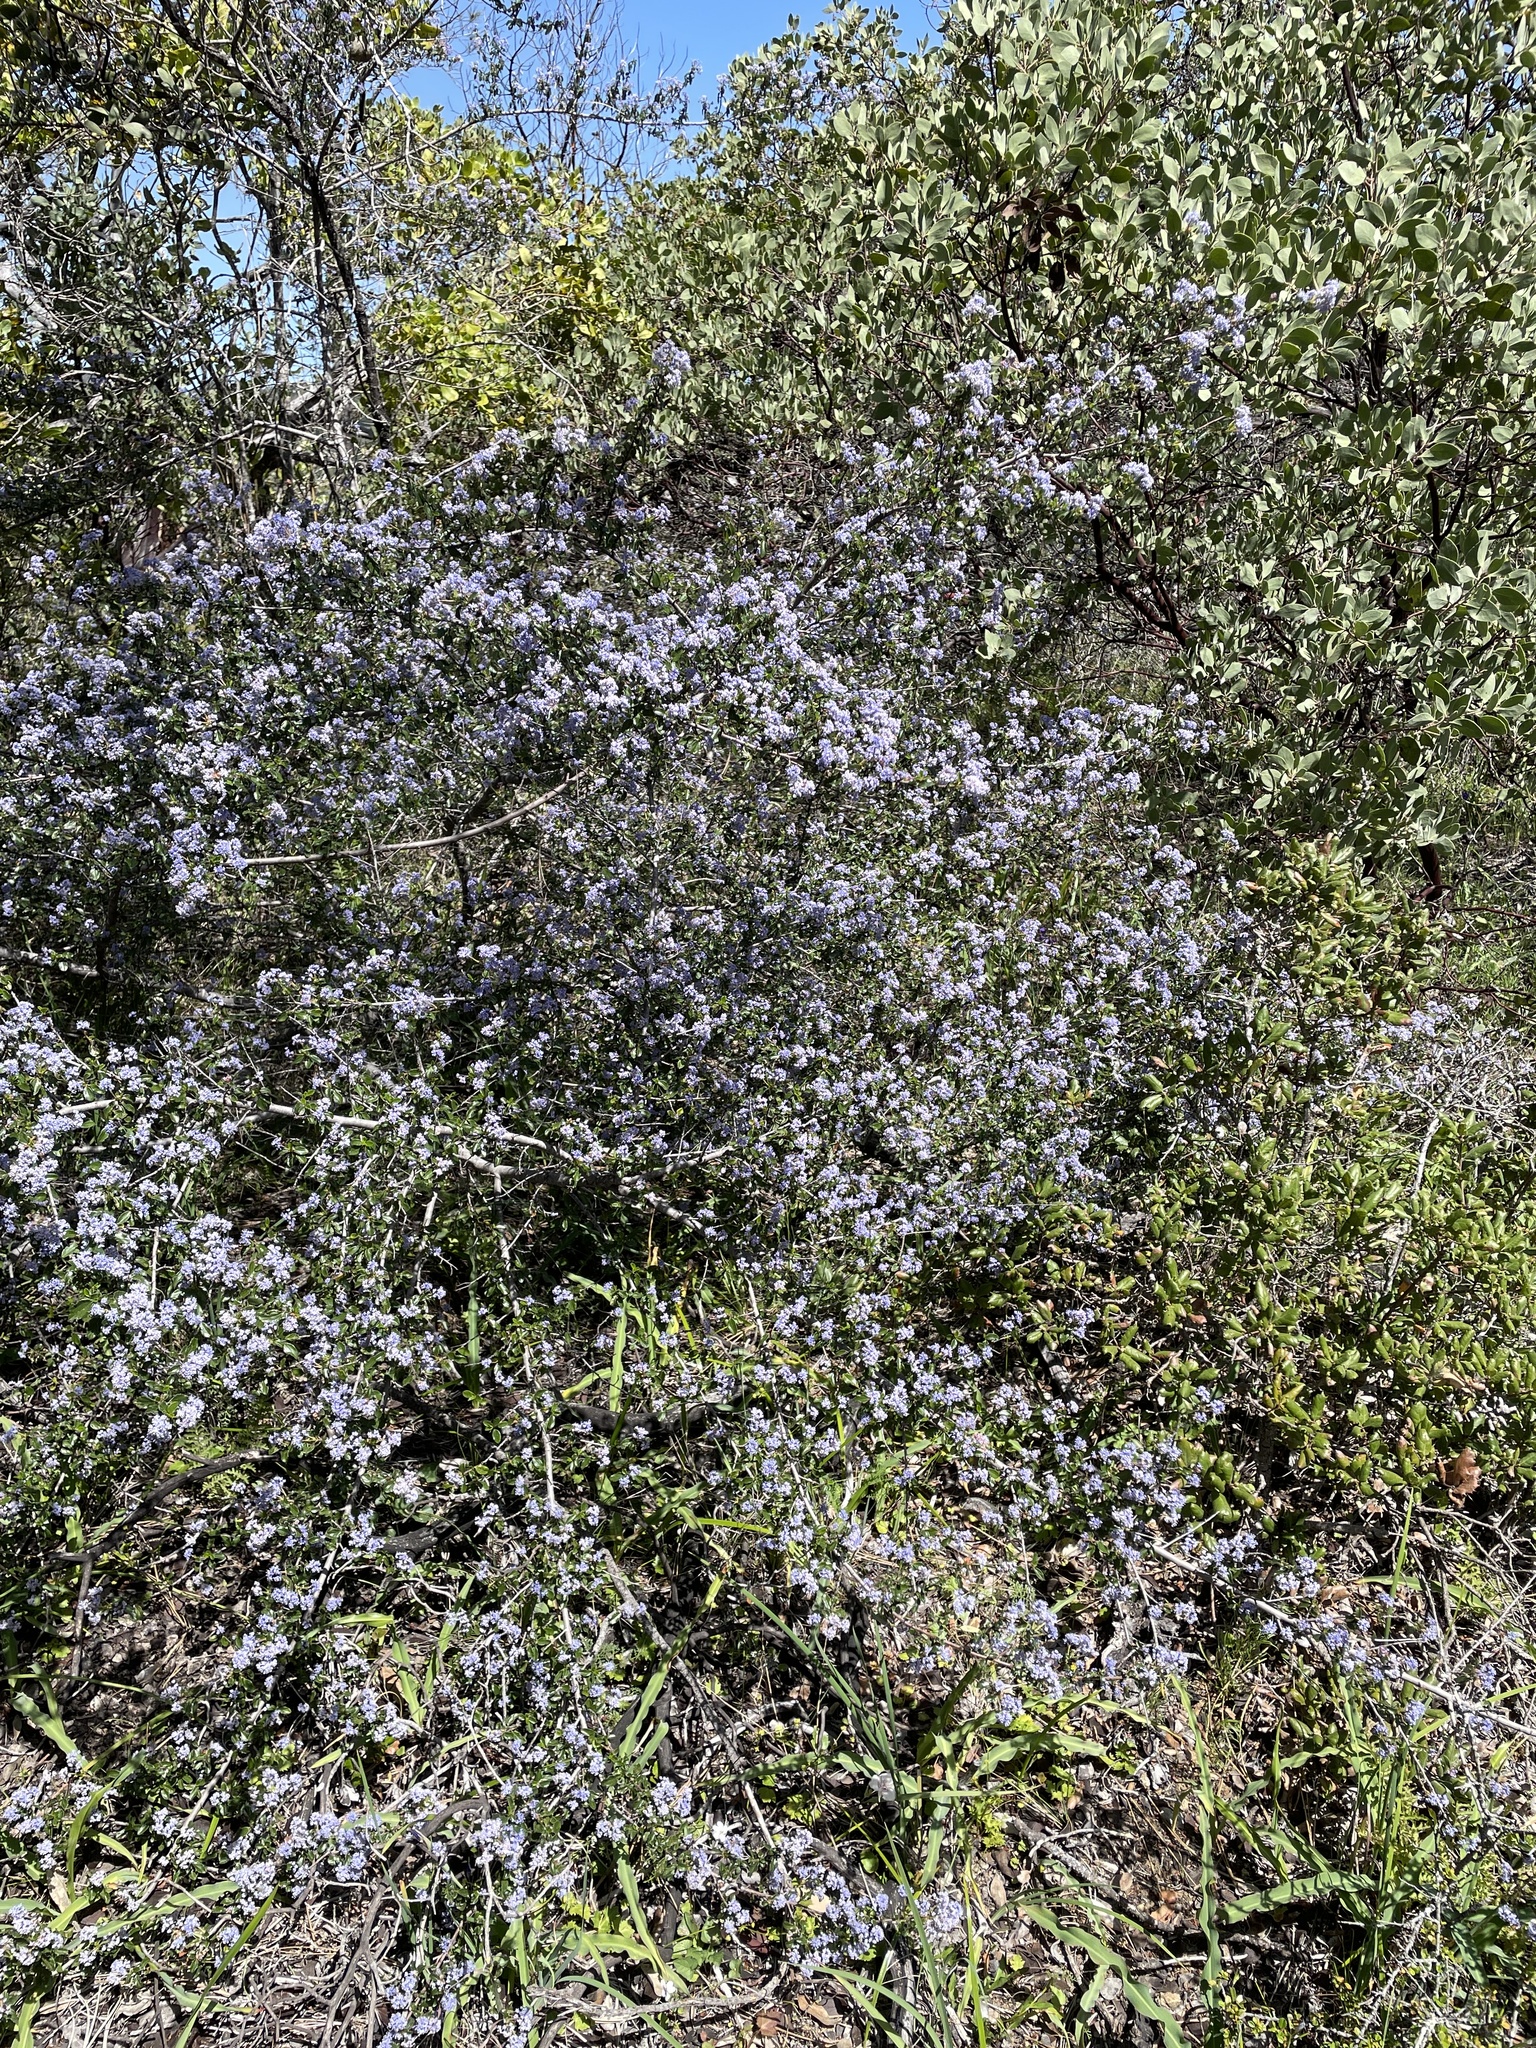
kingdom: Plantae
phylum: Tracheophyta
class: Magnoliopsida
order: Rosales
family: Rhamnaceae
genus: Ceanothus
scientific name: Ceanothus foliosus
